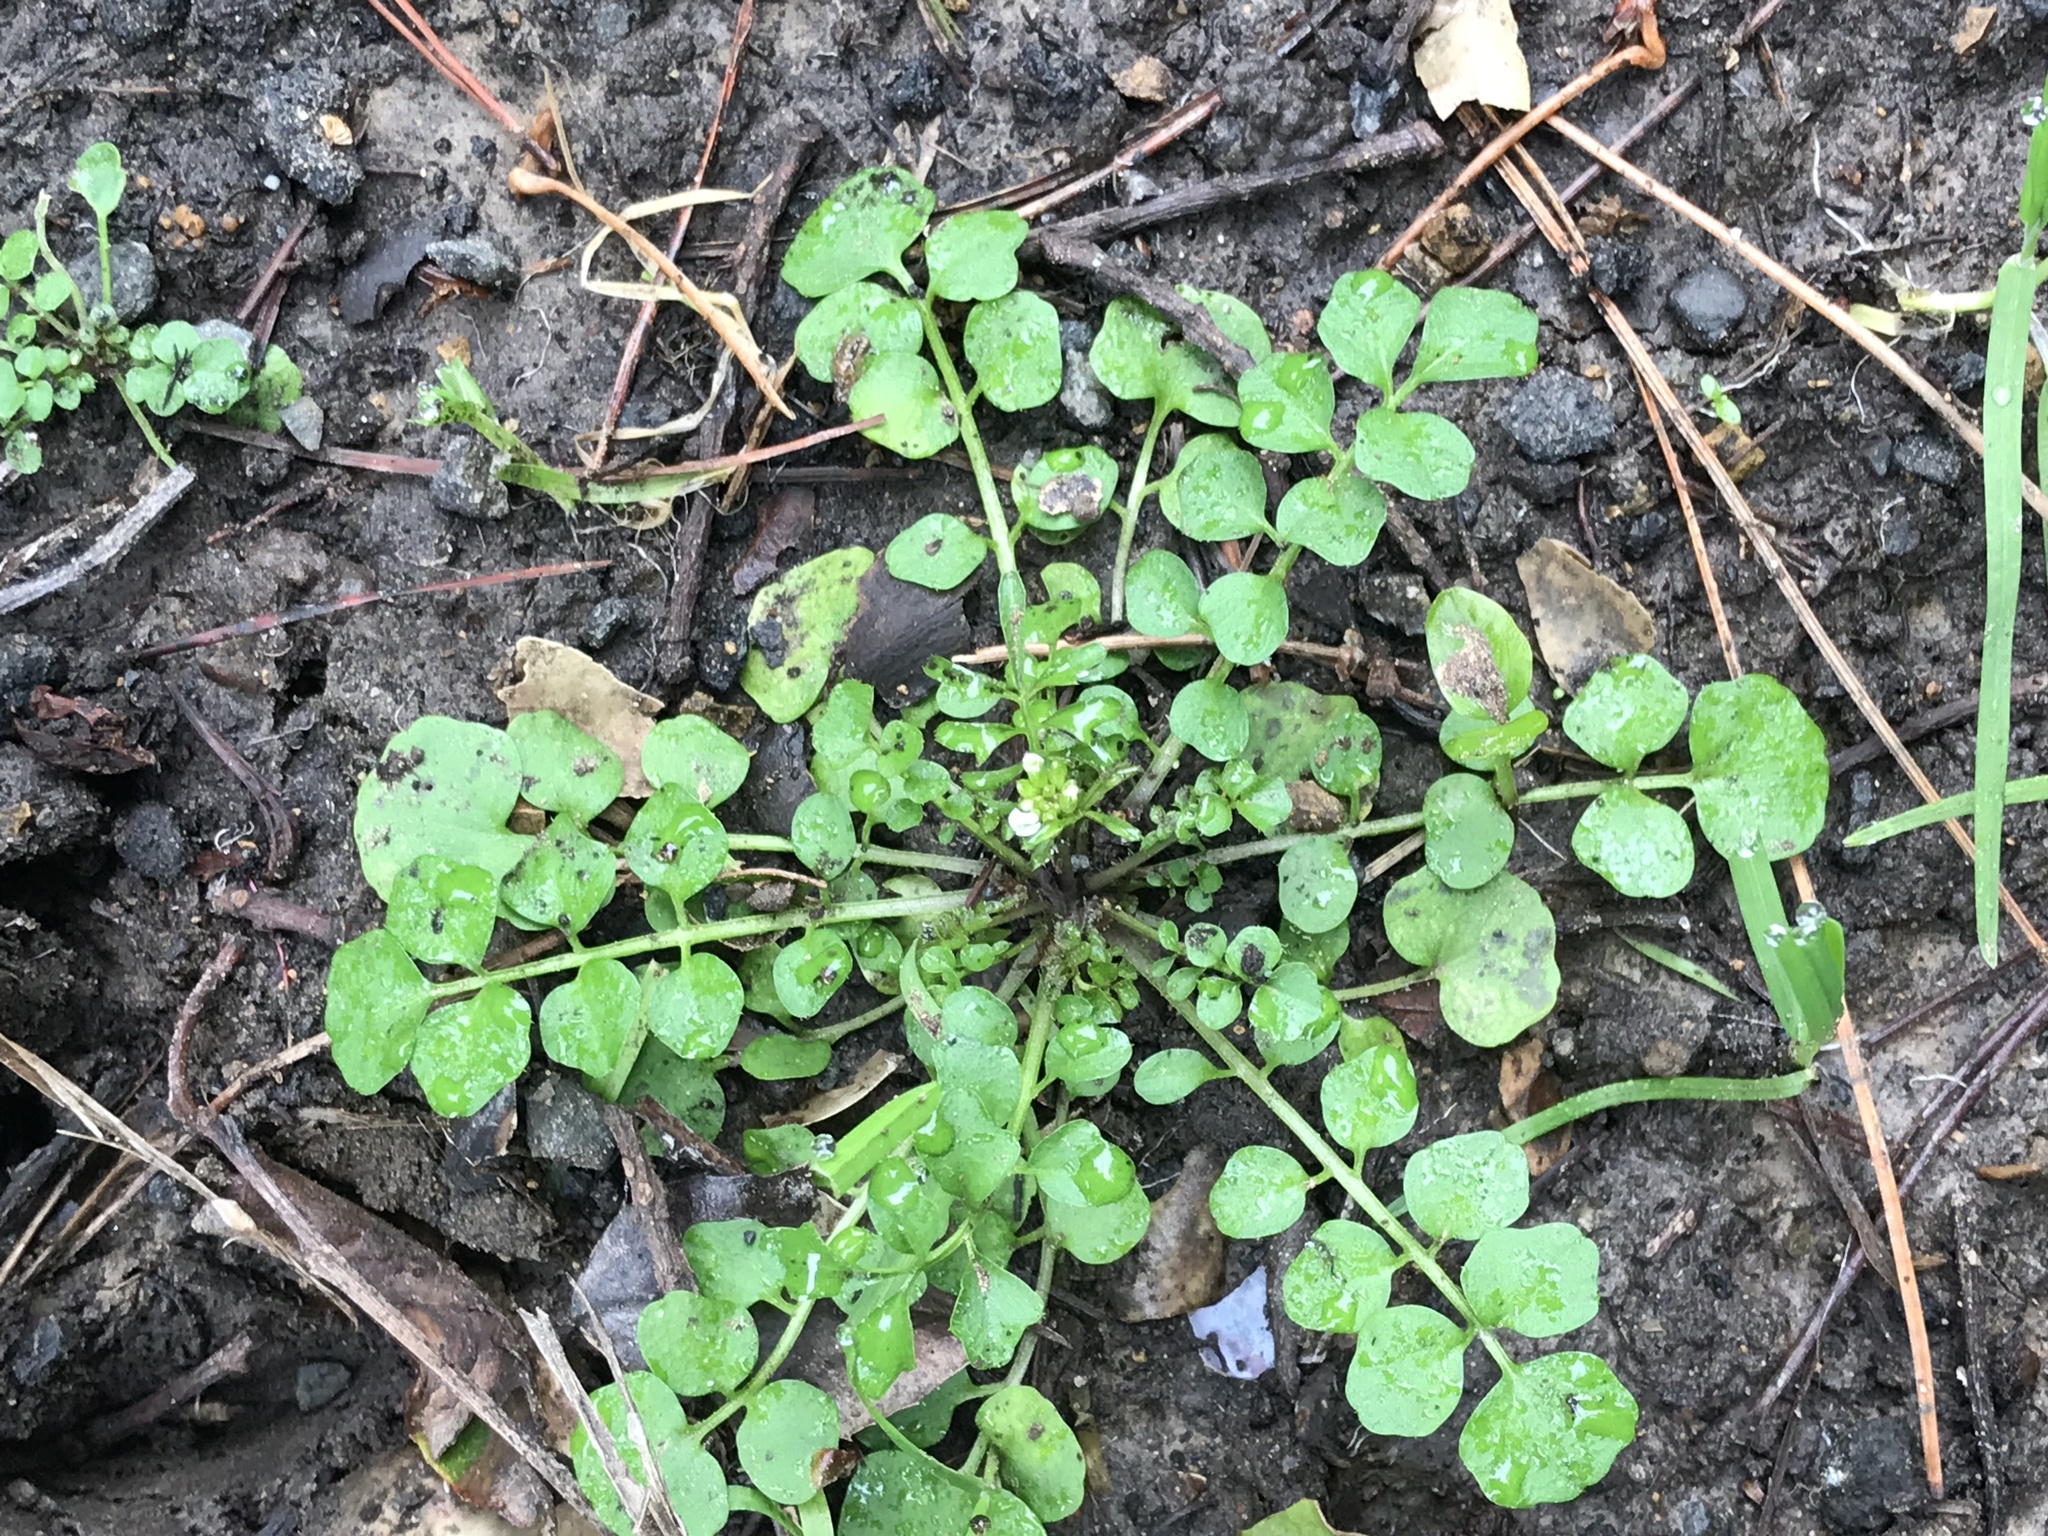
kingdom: Plantae
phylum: Tracheophyta
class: Magnoliopsida
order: Brassicales
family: Brassicaceae
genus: Cardamine
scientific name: Cardamine hirsuta
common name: Hairy bittercress
